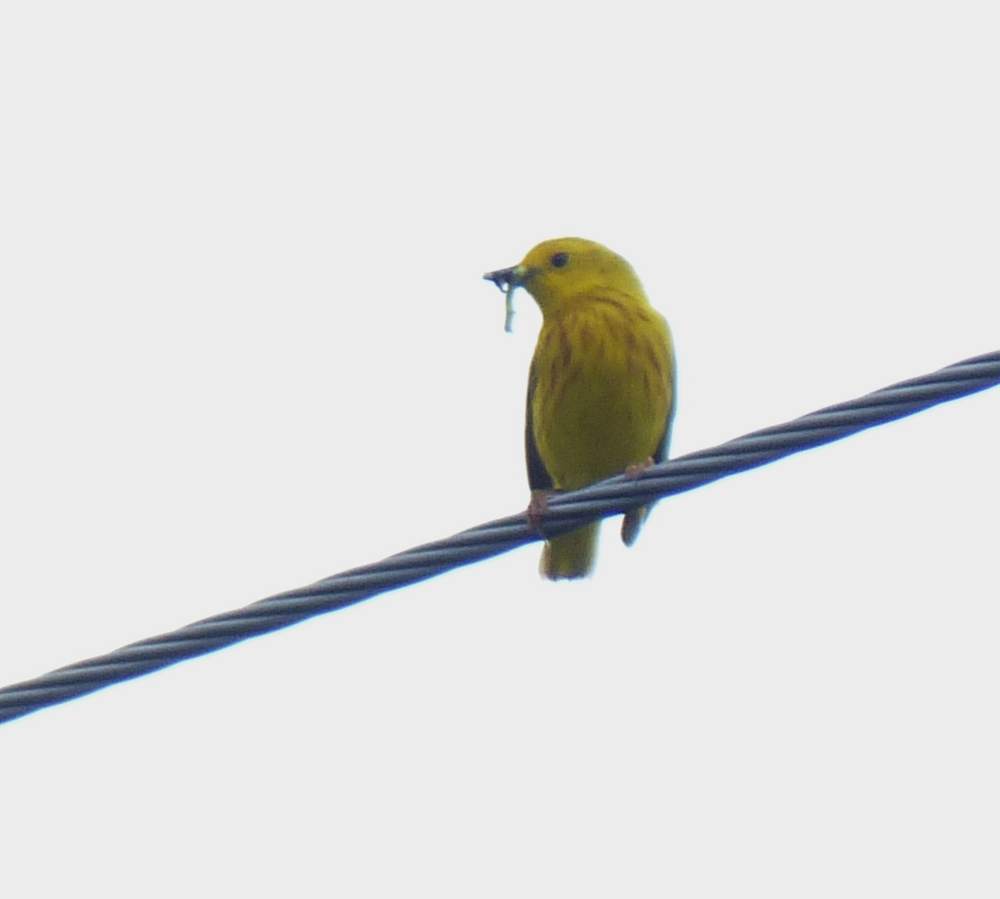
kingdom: Animalia
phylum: Chordata
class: Aves
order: Passeriformes
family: Parulidae
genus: Setophaga
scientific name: Setophaga petechia
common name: Yellow warbler
